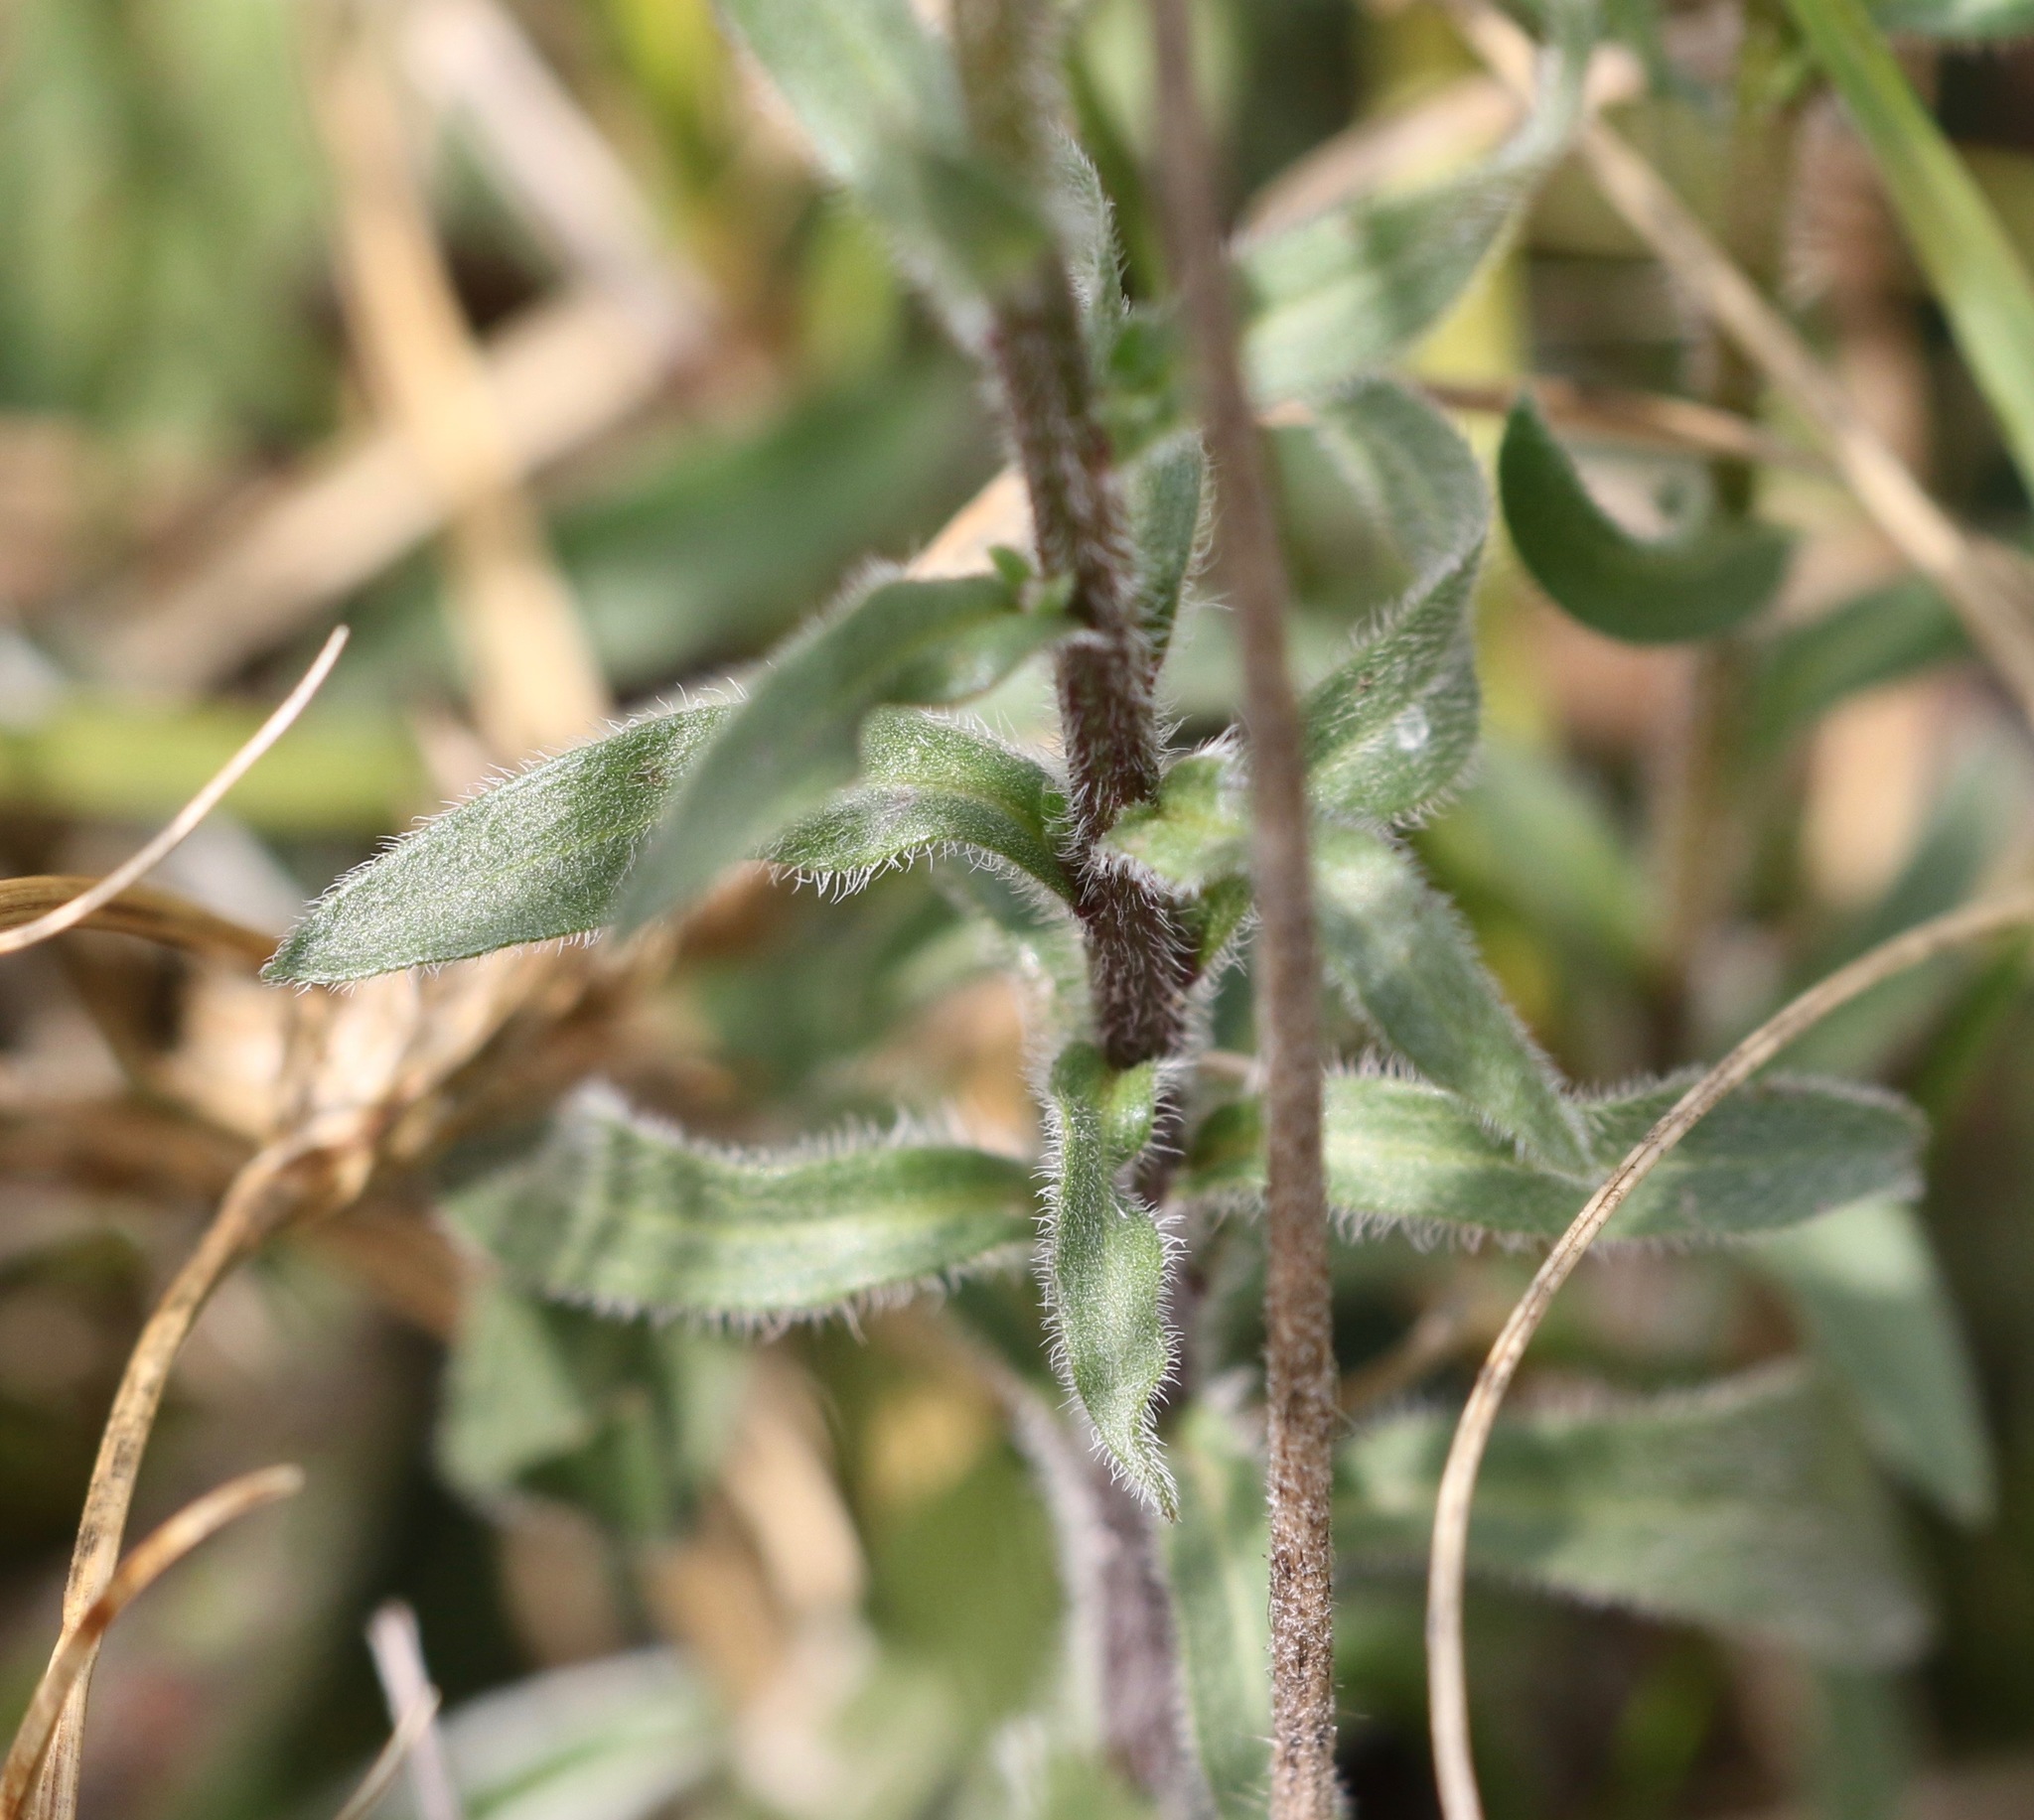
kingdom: Plantae
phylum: Tracheophyta
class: Magnoliopsida
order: Asterales
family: Asteraceae
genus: Erigeron
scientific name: Erigeron acris
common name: Blue fleabane
